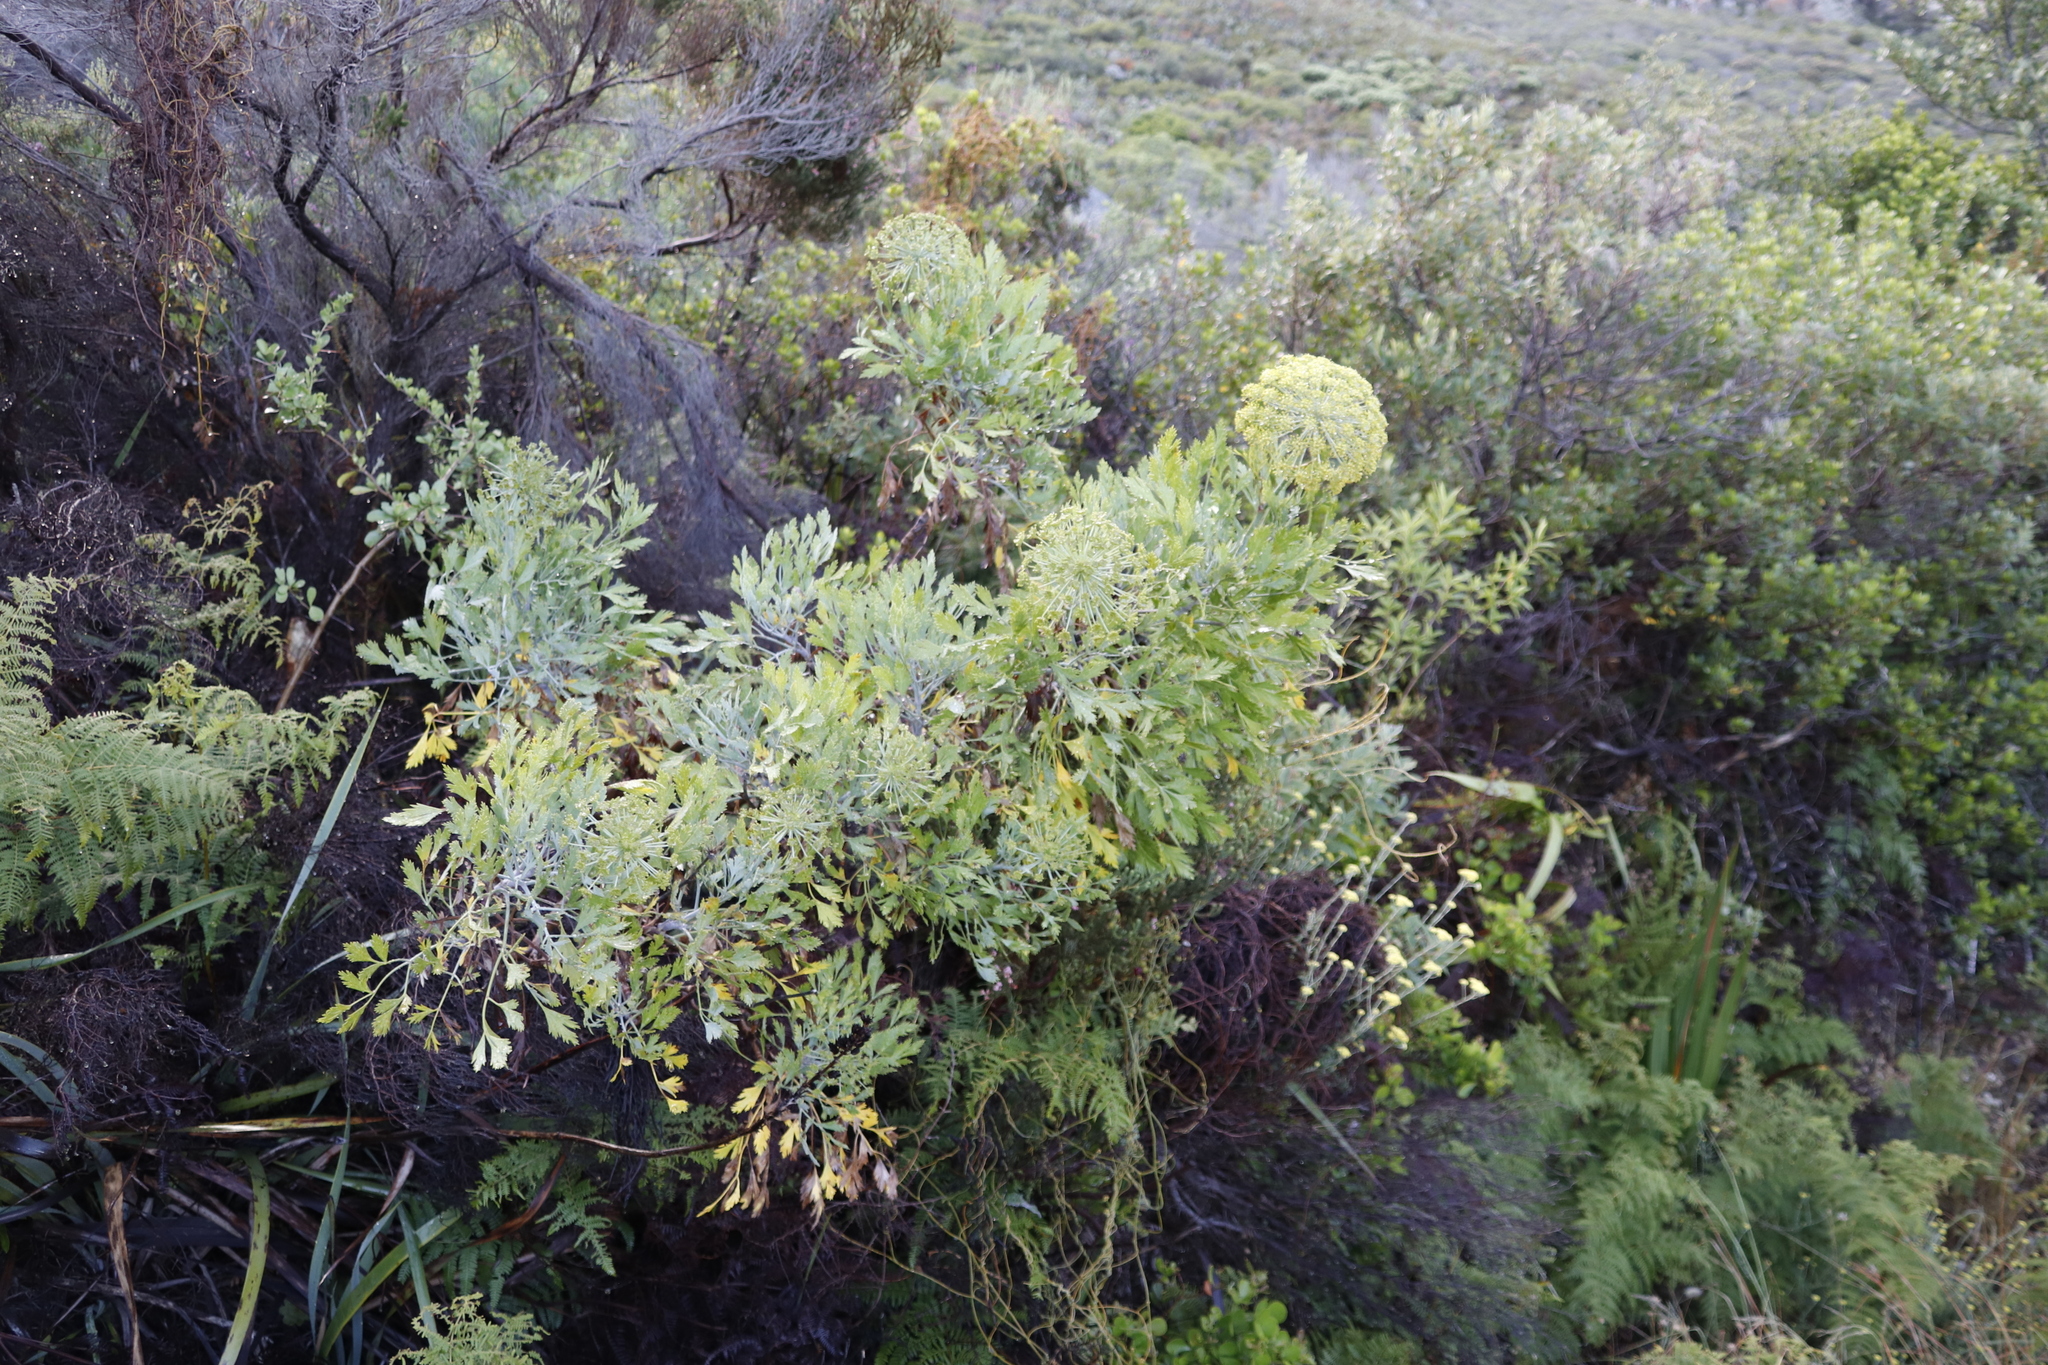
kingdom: Plantae
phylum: Tracheophyta
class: Magnoliopsida
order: Apiales
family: Apiaceae
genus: Notobubon
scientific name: Notobubon galbanum
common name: Blisterbush
